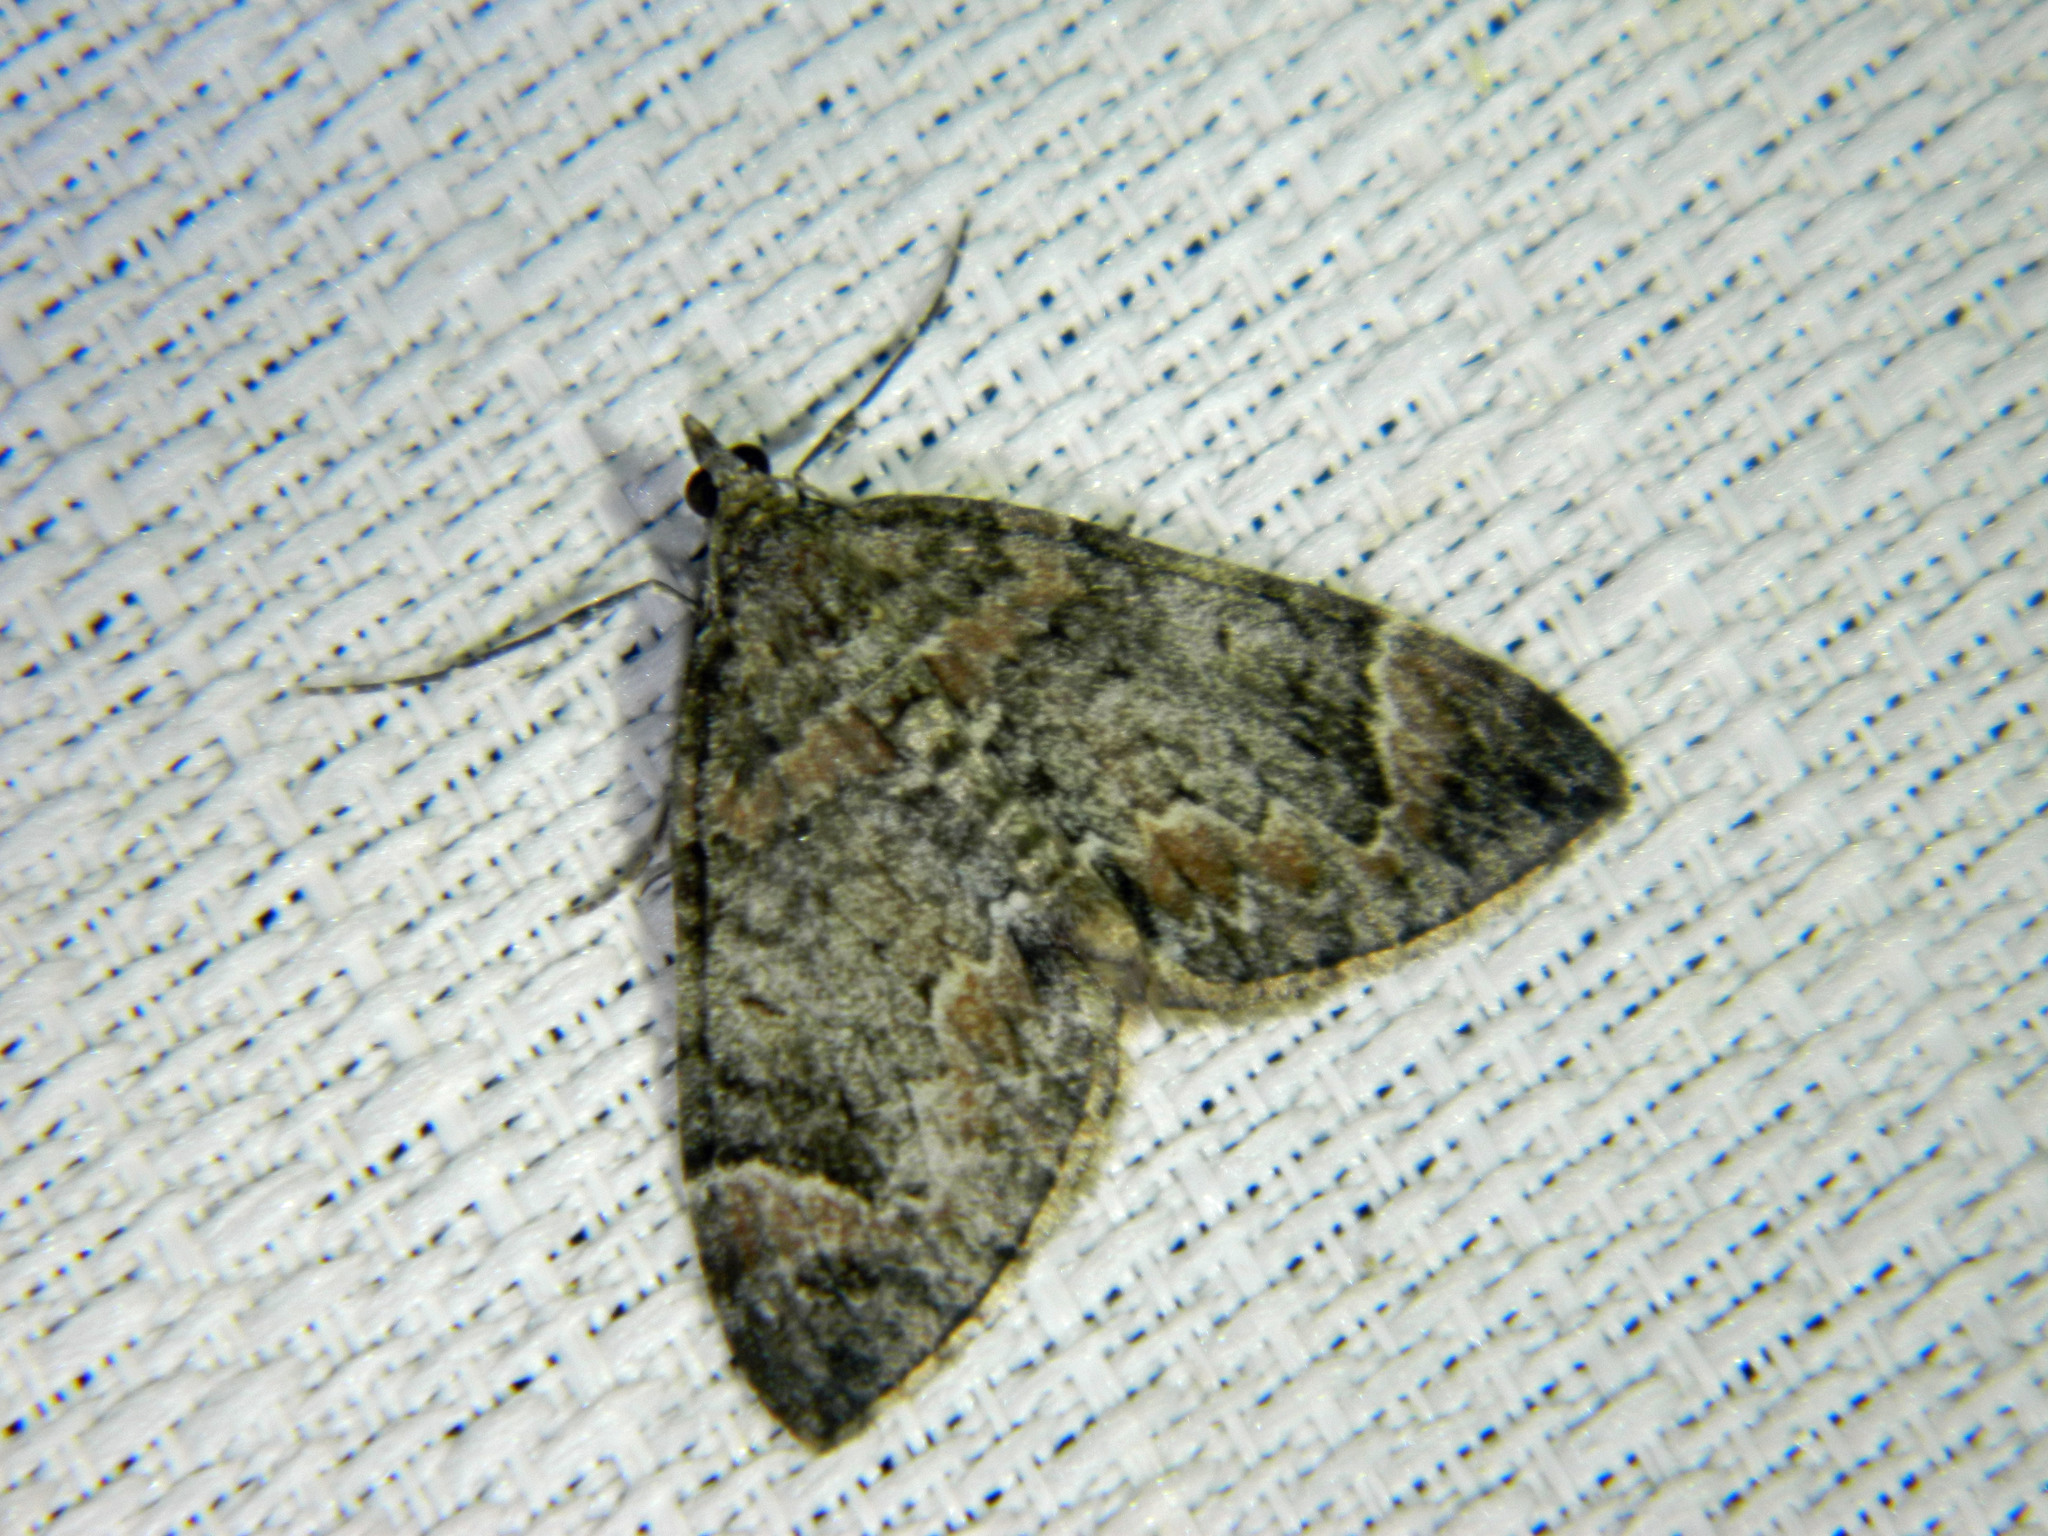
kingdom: Animalia
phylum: Arthropoda
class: Insecta
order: Lepidoptera
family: Geometridae
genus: Dysstroma
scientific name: Dysstroma citrata
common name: Dark marbled carpet
